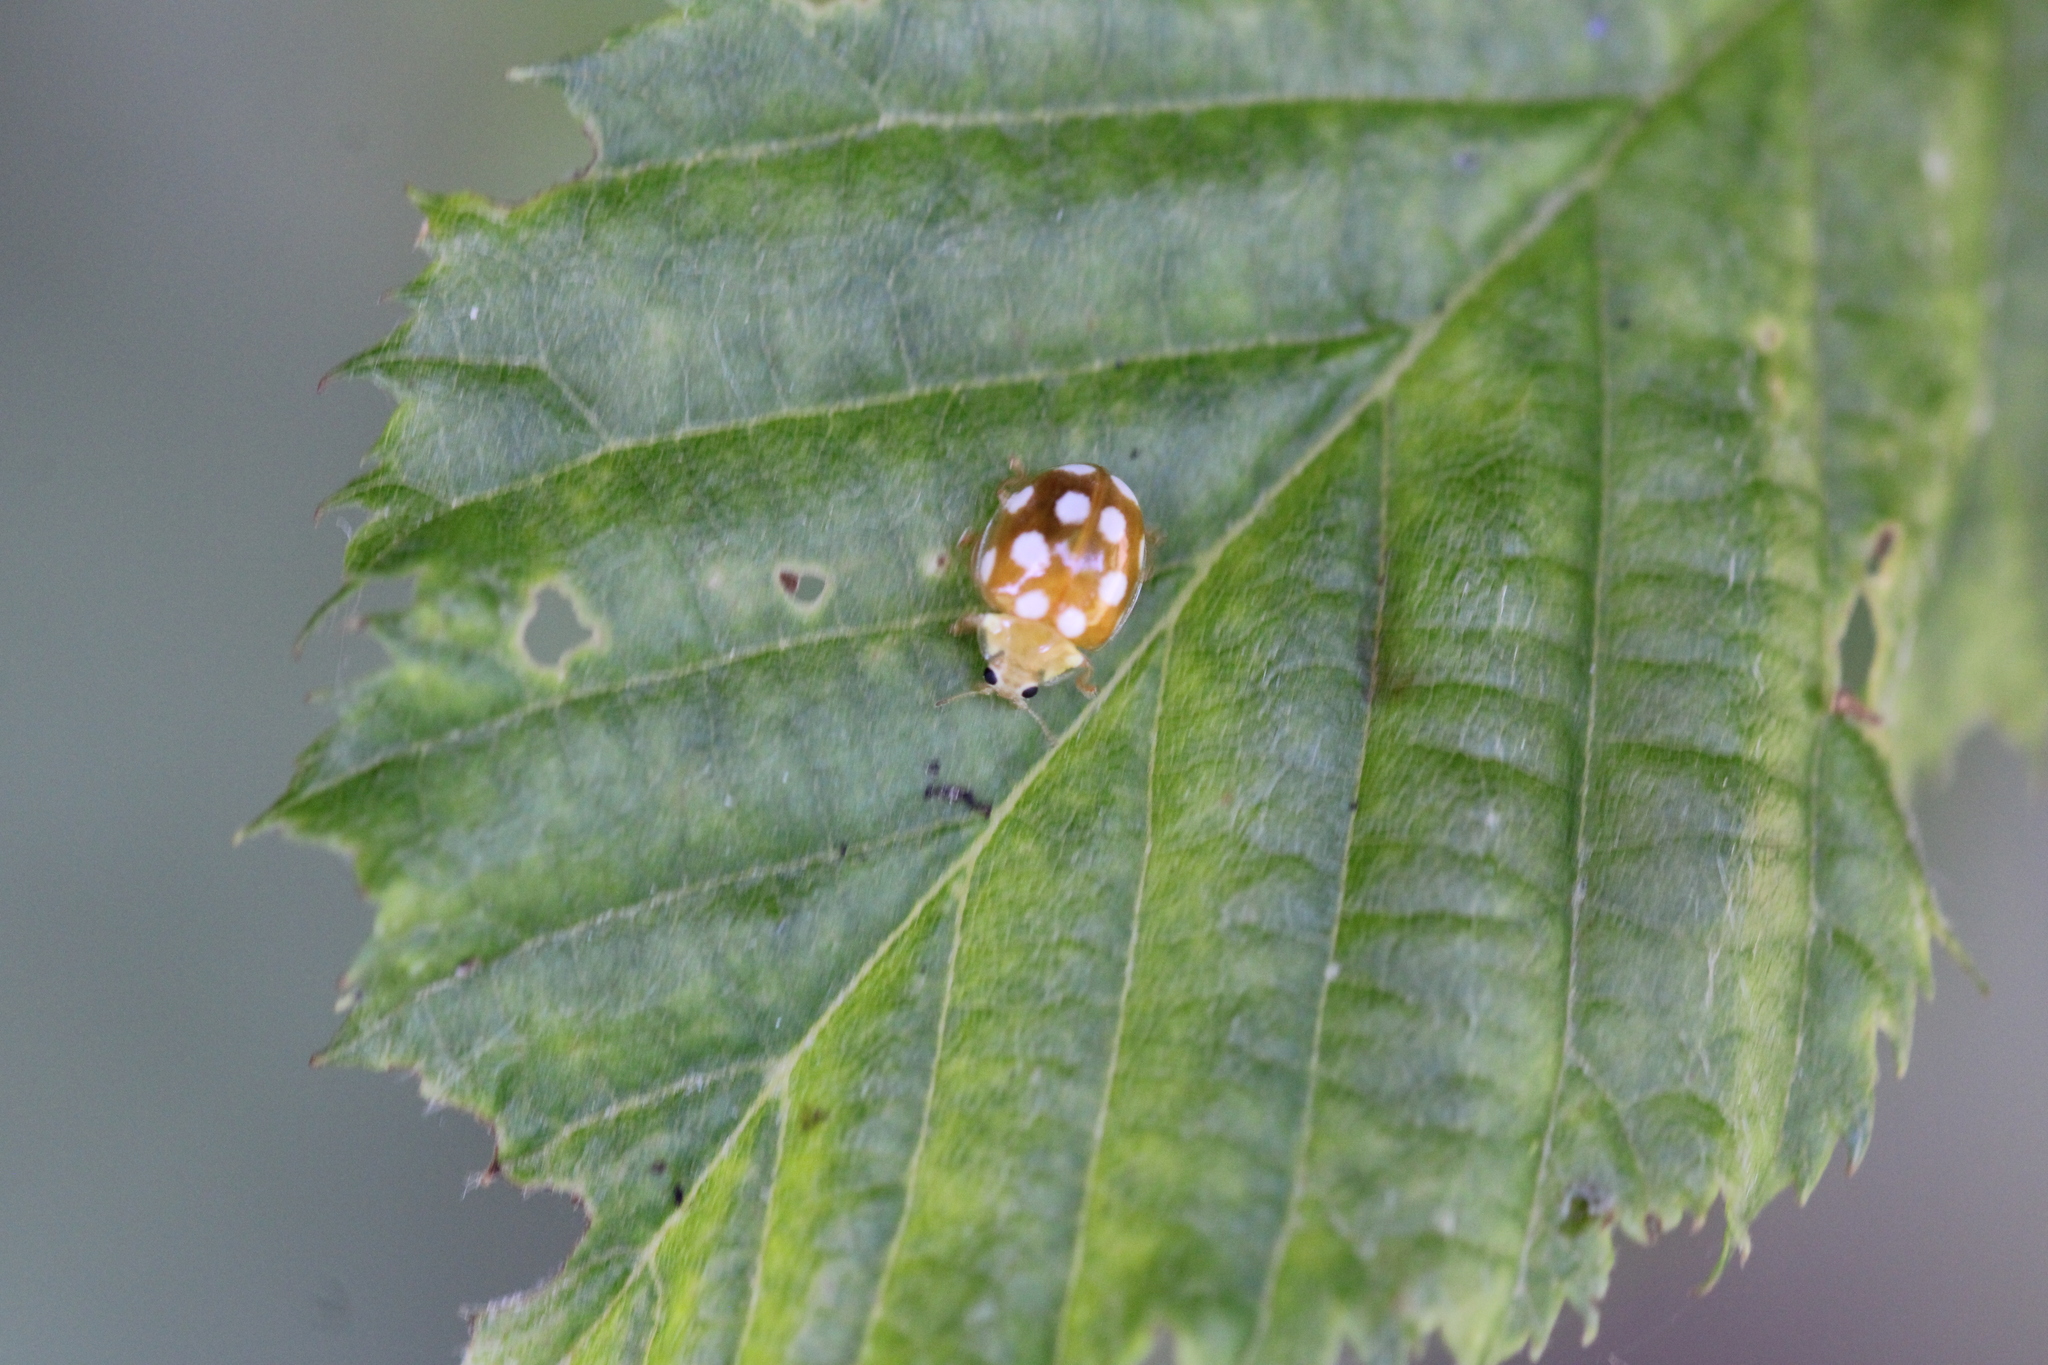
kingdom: Animalia
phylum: Arthropoda
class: Insecta
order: Coleoptera
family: Coccinellidae
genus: Vibidia
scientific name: Vibidia duodecimguttata
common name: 12-spot ladybird
